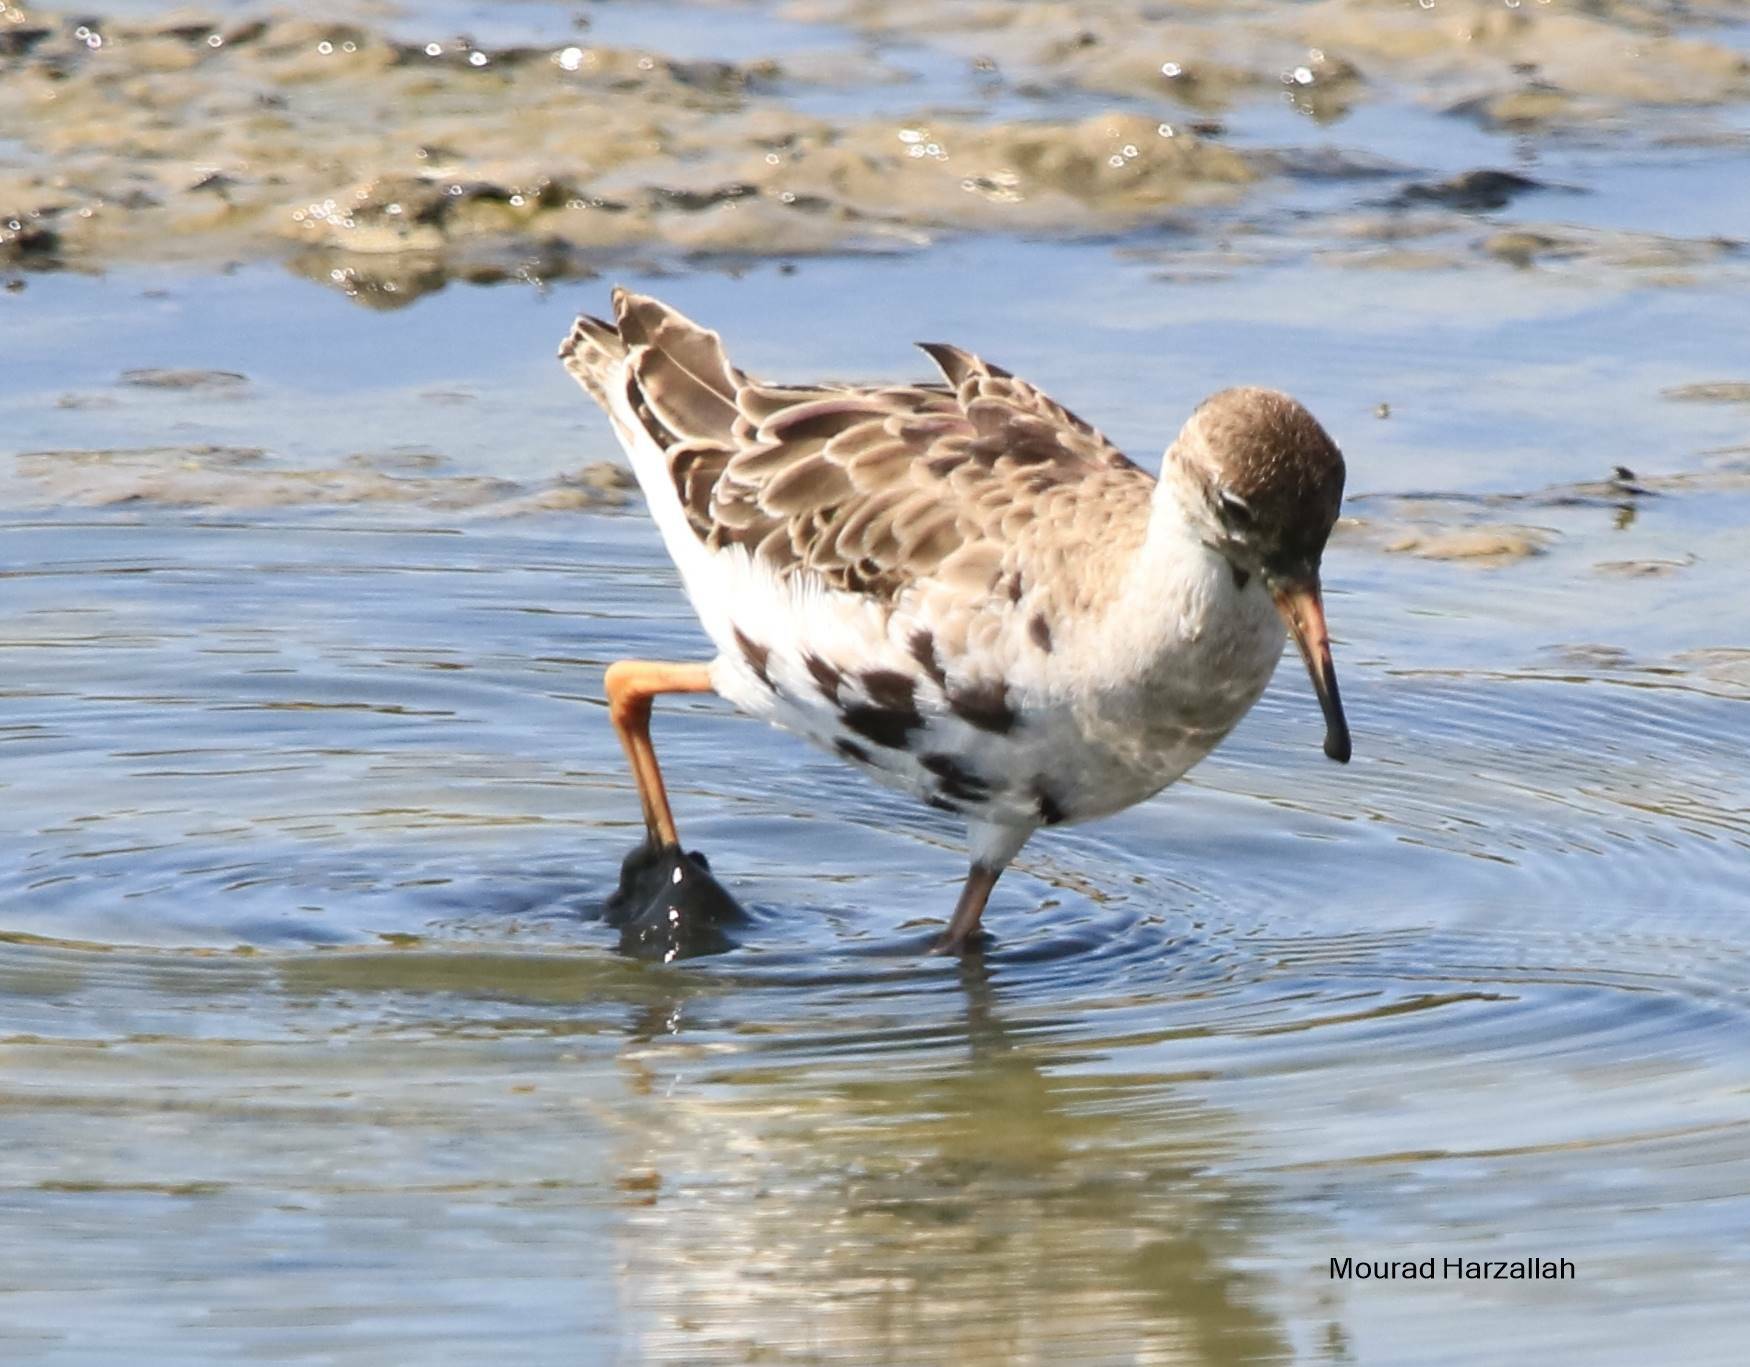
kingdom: Animalia
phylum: Chordata
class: Aves
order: Charadriiformes
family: Scolopacidae
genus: Calidris
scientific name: Calidris pugnax
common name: Ruff
